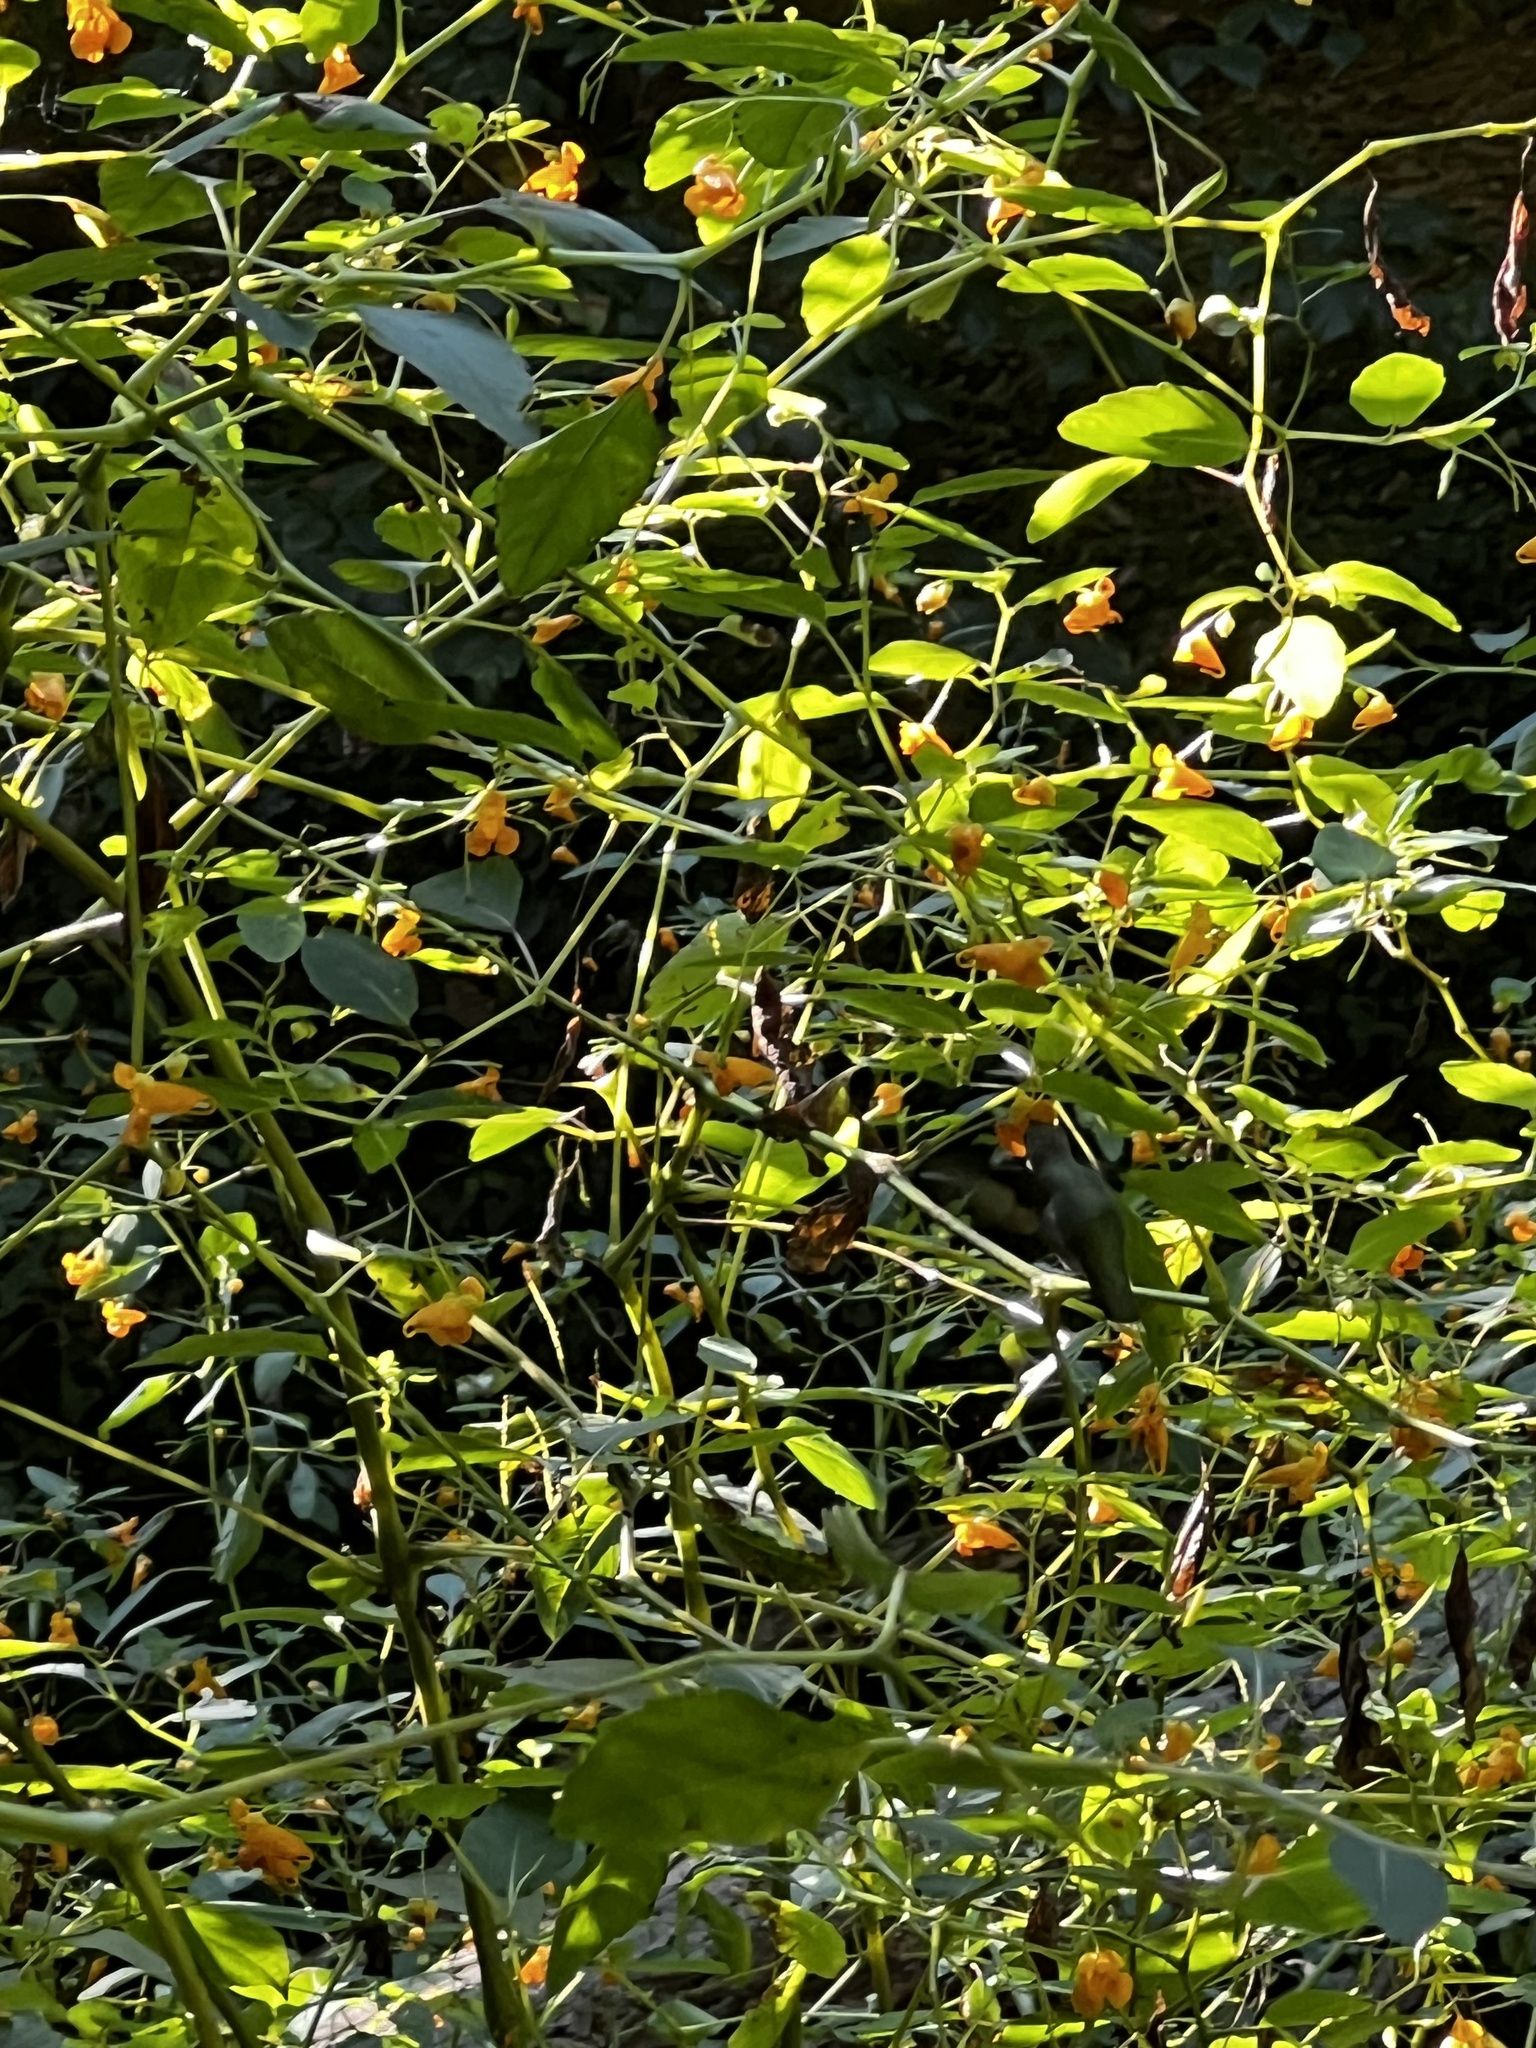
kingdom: Animalia
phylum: Chordata
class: Aves
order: Apodiformes
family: Trochilidae
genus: Archilochus
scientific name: Archilochus colubris
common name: Ruby-throated hummingbird
